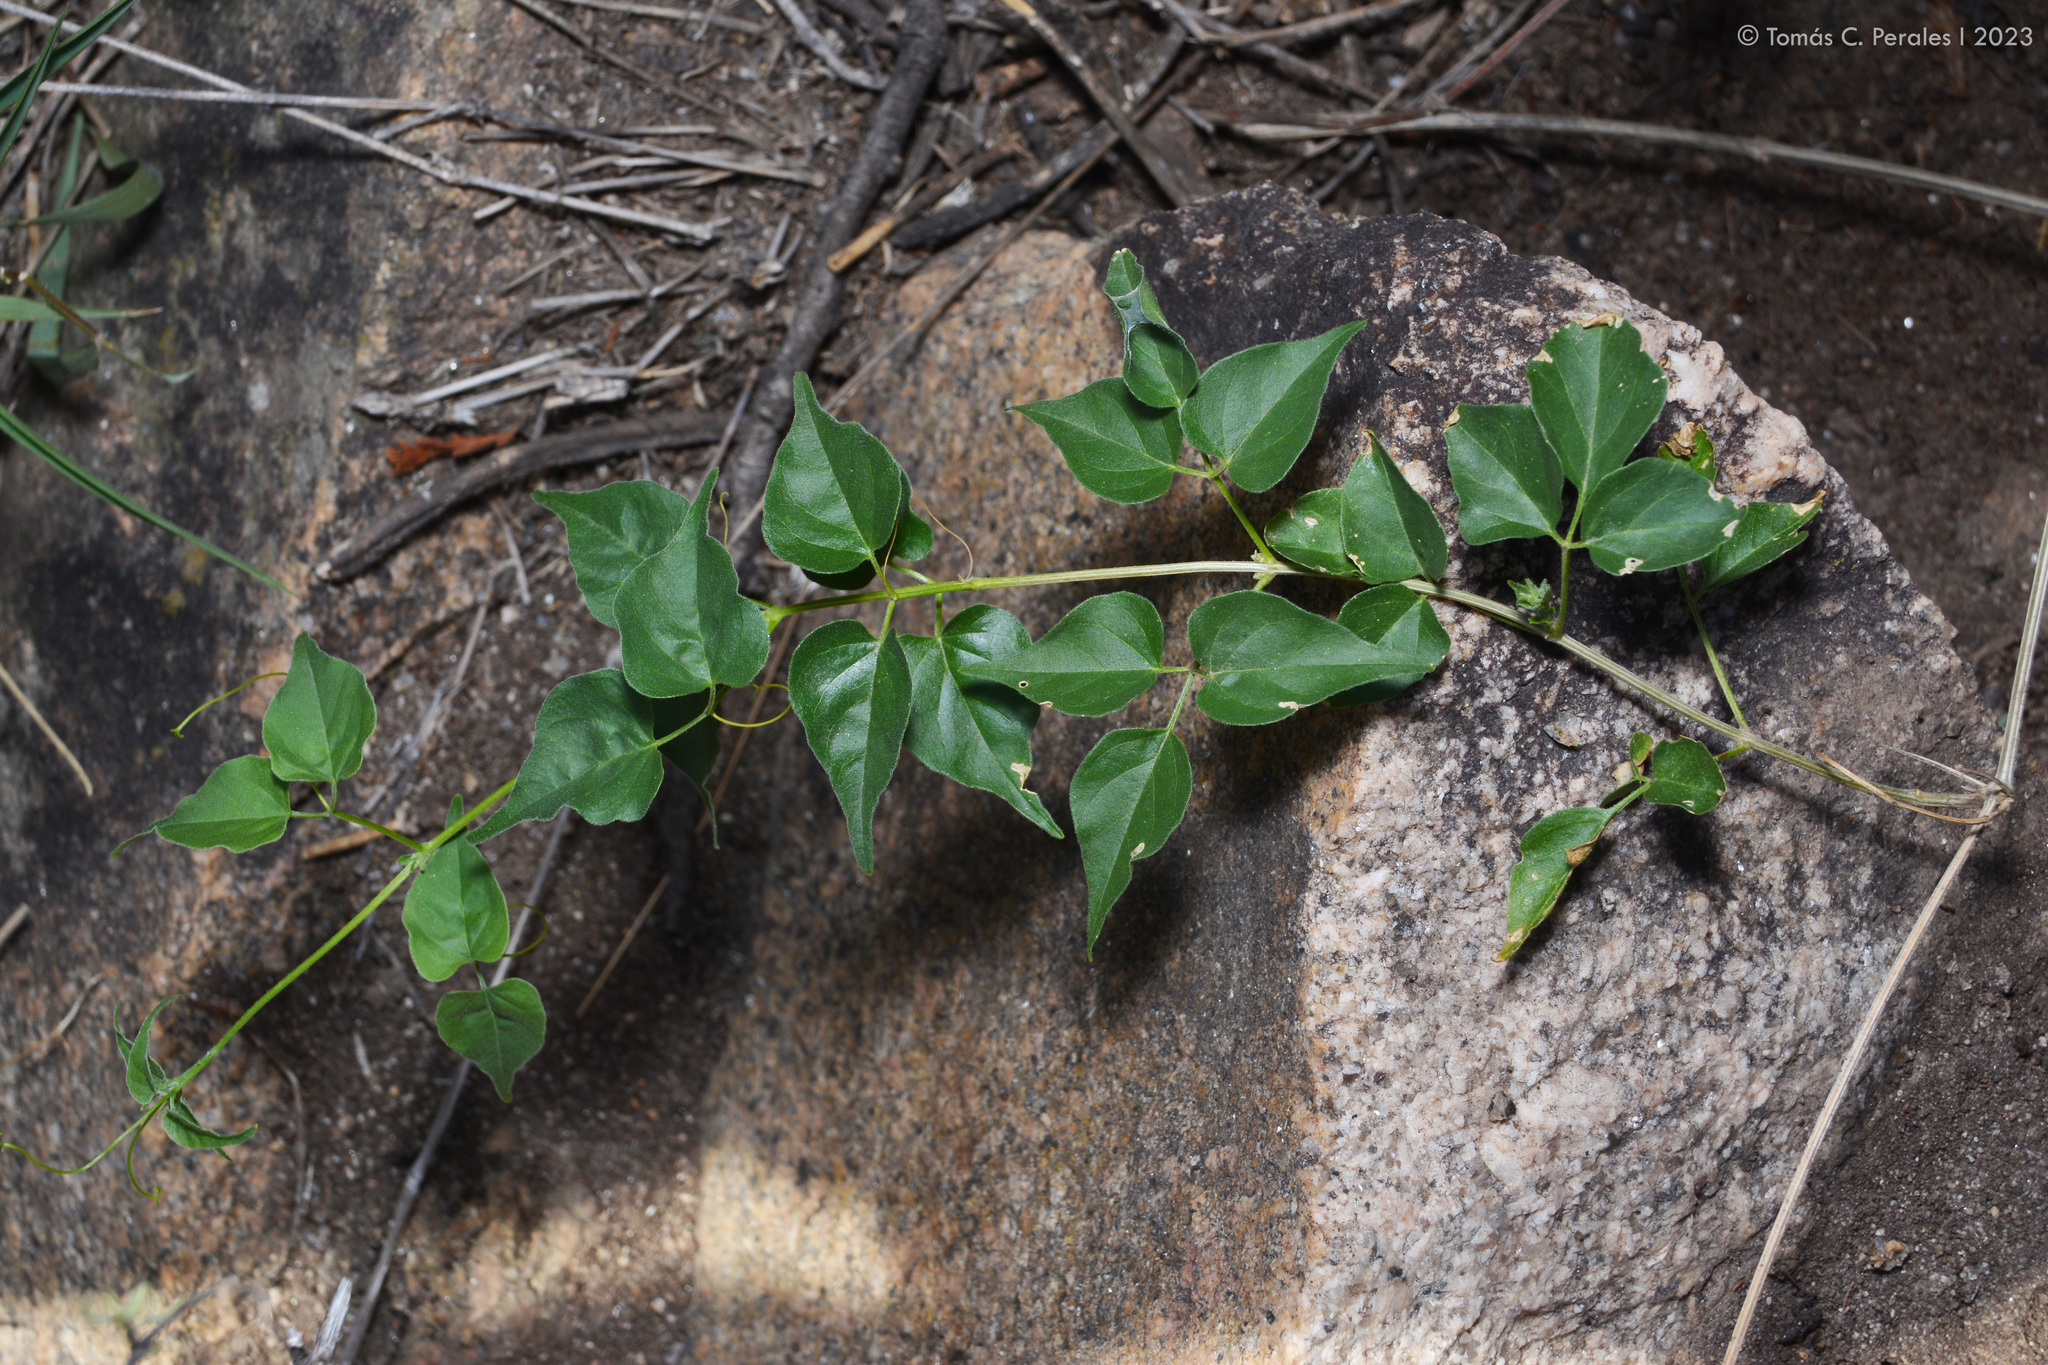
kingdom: Plantae
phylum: Tracheophyta
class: Magnoliopsida
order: Lamiales
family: Bignoniaceae
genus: Amphilophium
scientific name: Amphilophium carolinae
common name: Monkey's-comb
